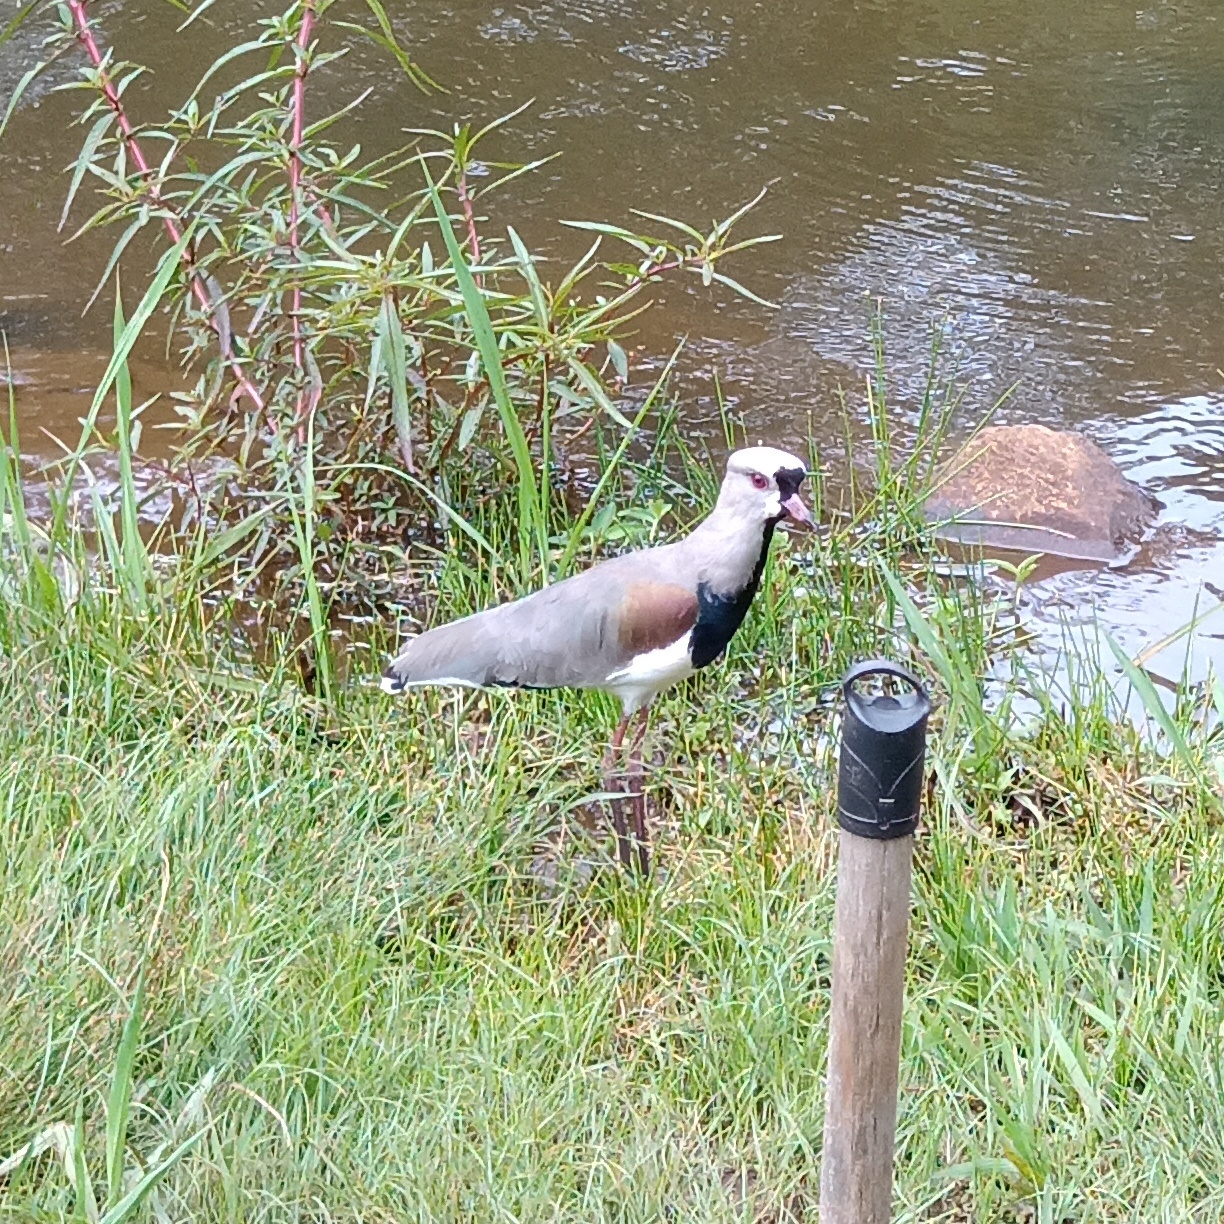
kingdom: Animalia
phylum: Chordata
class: Aves
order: Charadriiformes
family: Charadriidae
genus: Vanellus
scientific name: Vanellus chilensis
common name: Southern lapwing
